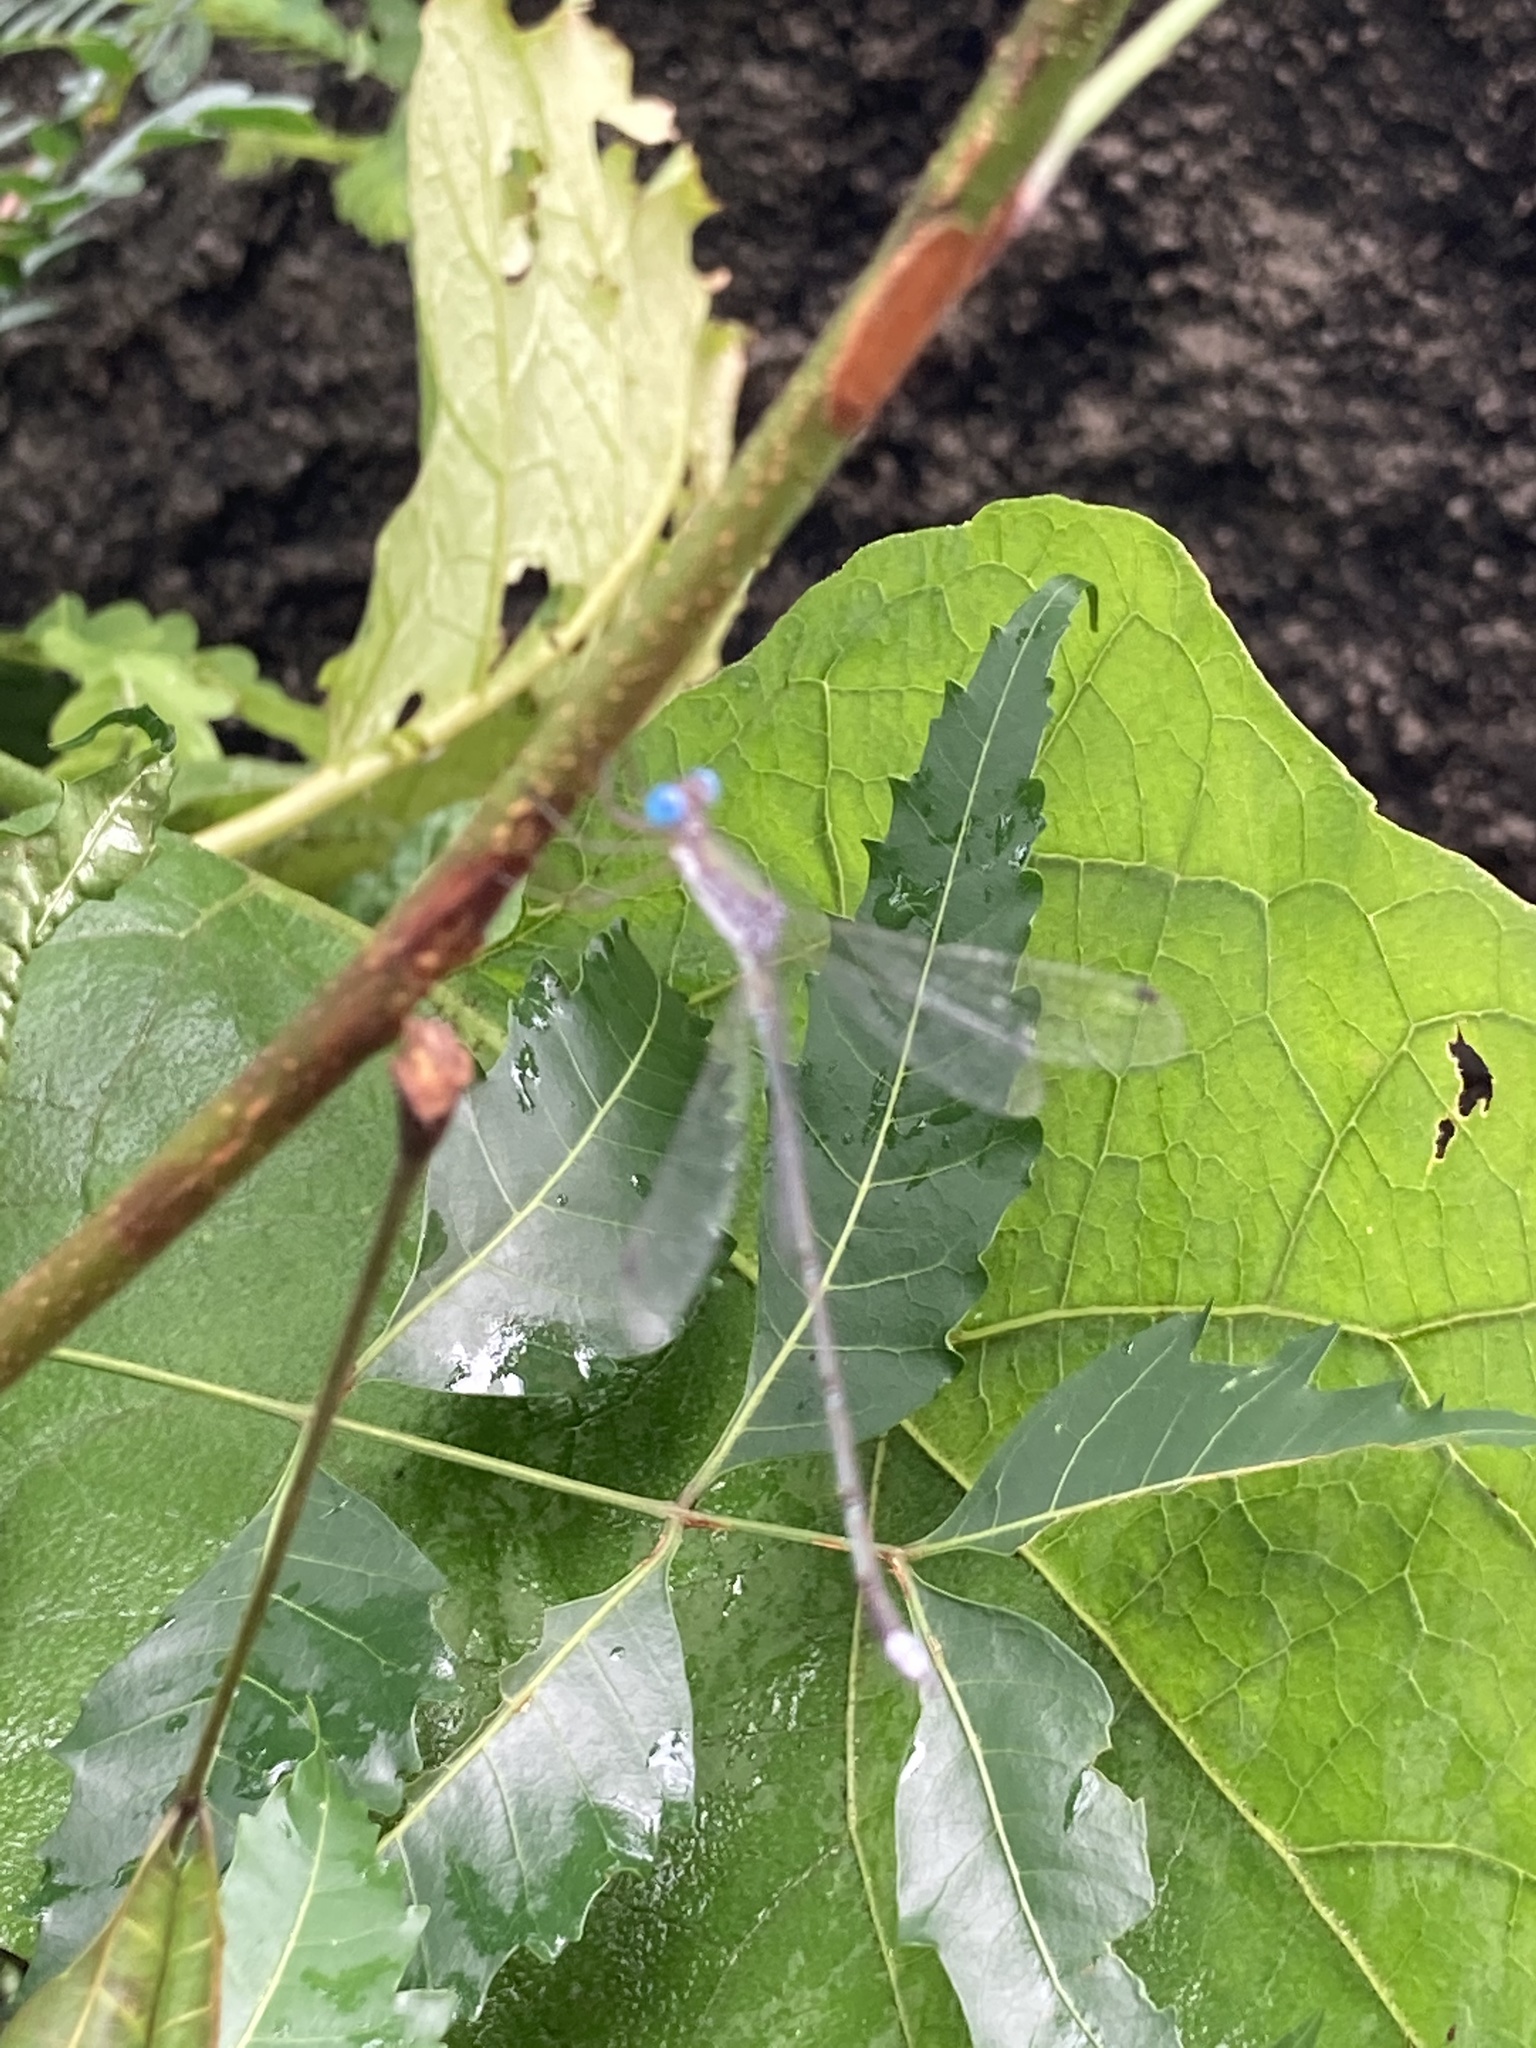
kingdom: Animalia
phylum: Arthropoda
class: Insecta
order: Odonata
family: Lestidae
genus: Lestes
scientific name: Lestes elatus
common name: Emerald spreadwing
